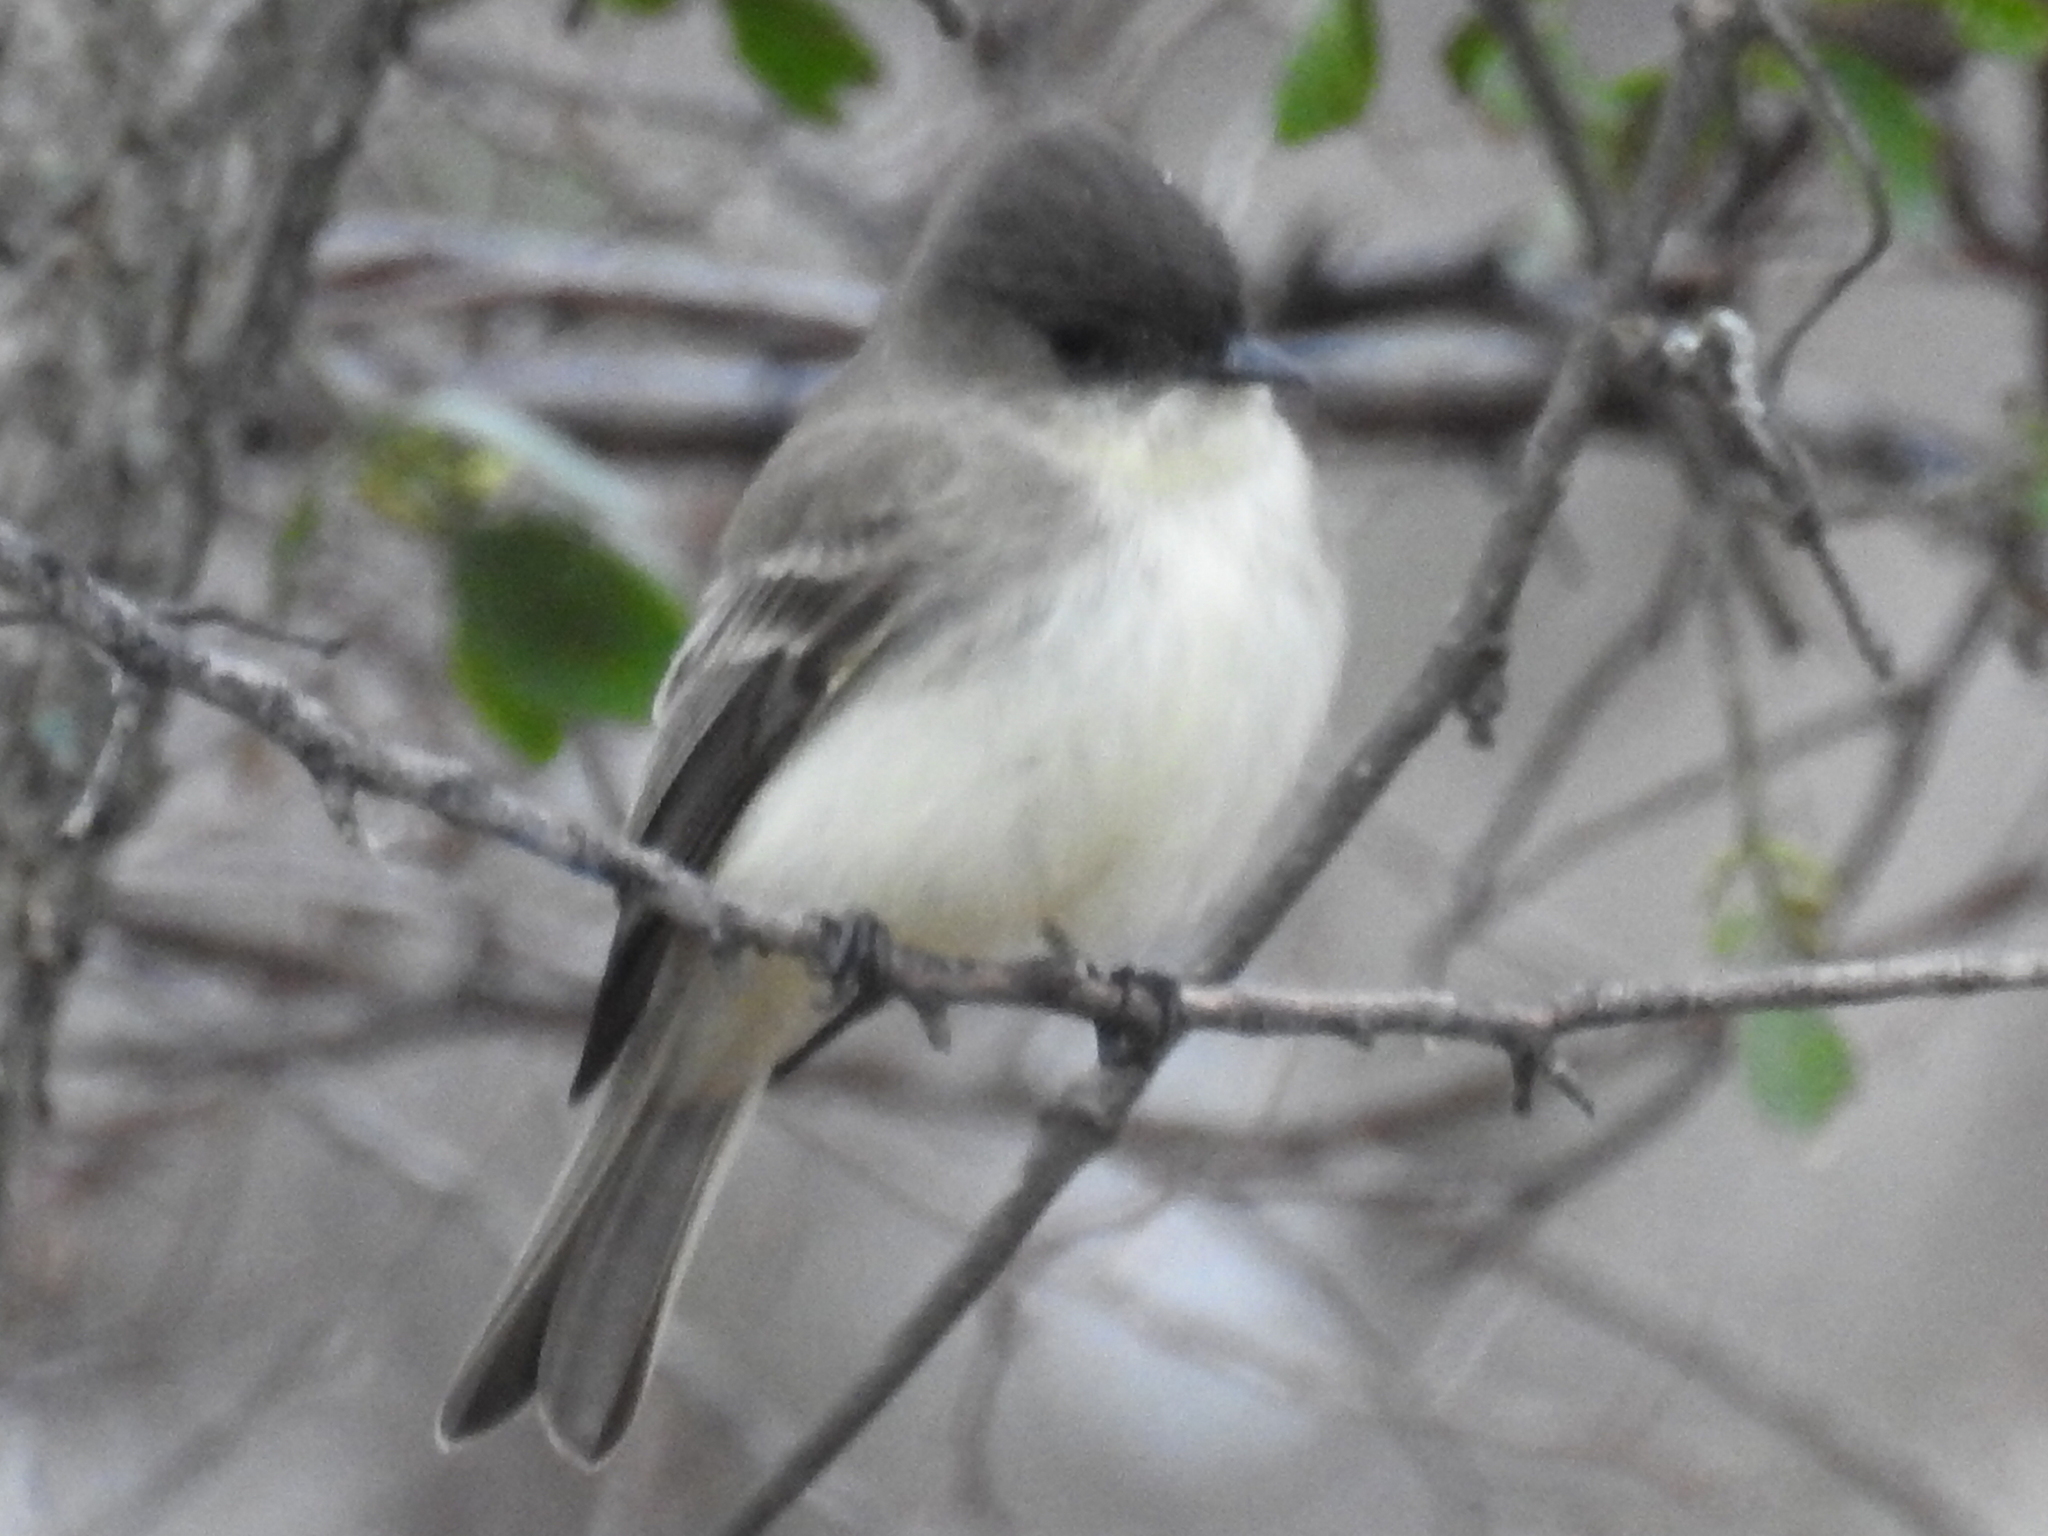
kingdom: Animalia
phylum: Chordata
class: Aves
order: Passeriformes
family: Tyrannidae
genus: Sayornis
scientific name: Sayornis phoebe
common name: Eastern phoebe
